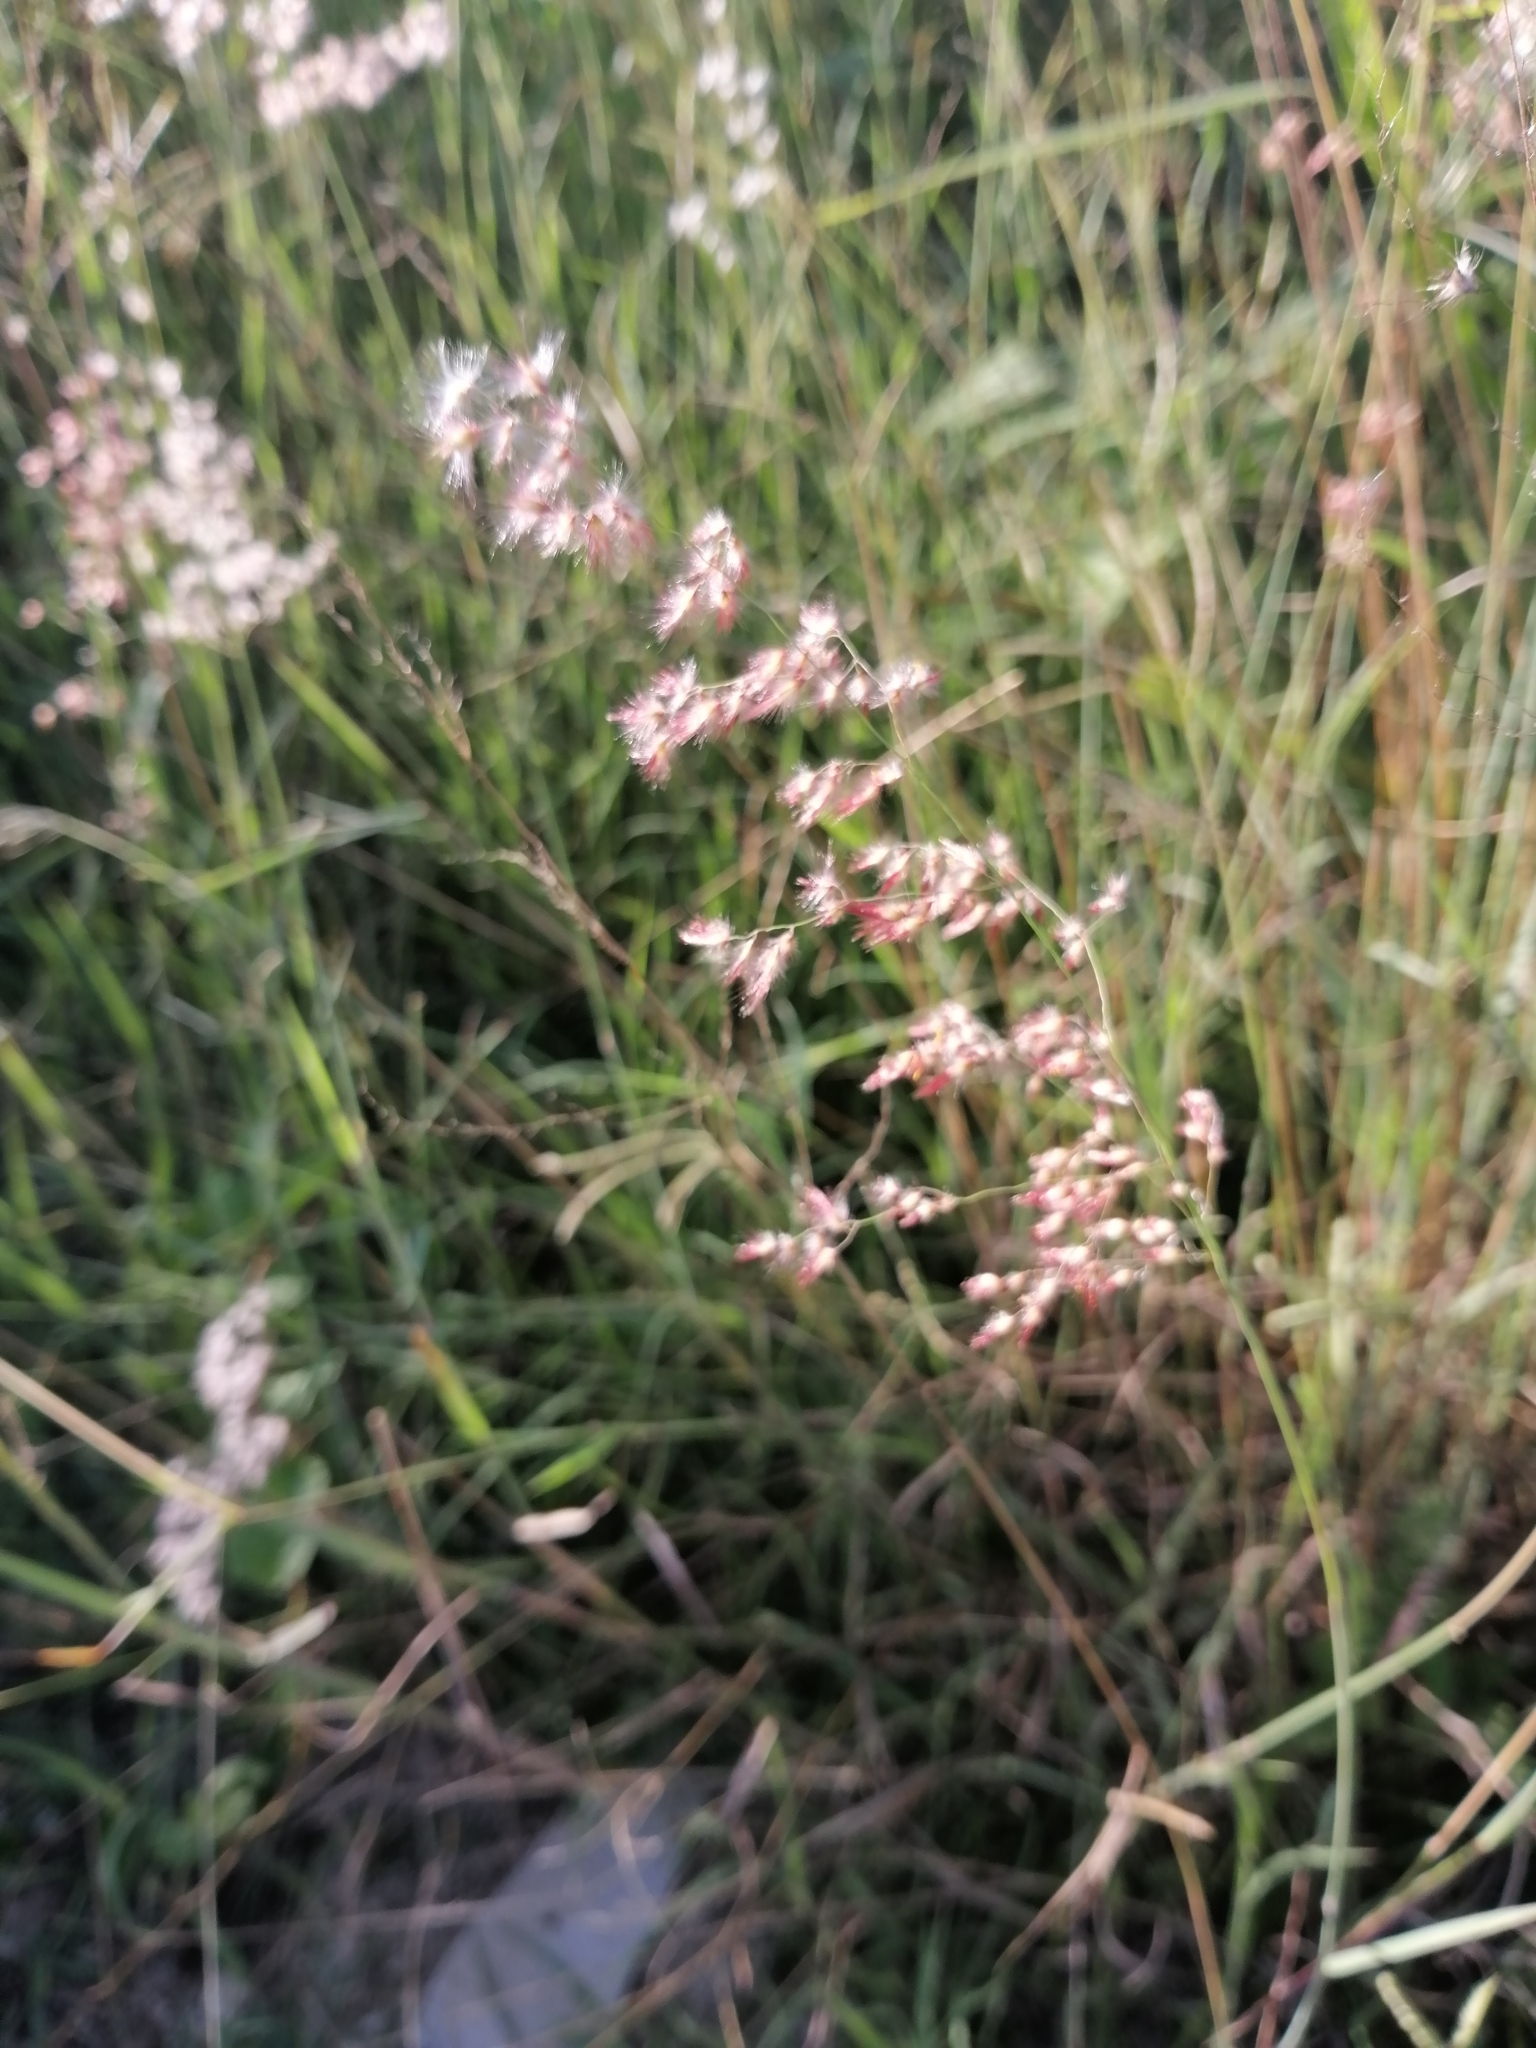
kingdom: Plantae
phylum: Tracheophyta
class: Liliopsida
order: Poales
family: Poaceae
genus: Melinis
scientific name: Melinis repens
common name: Rose natal grass
